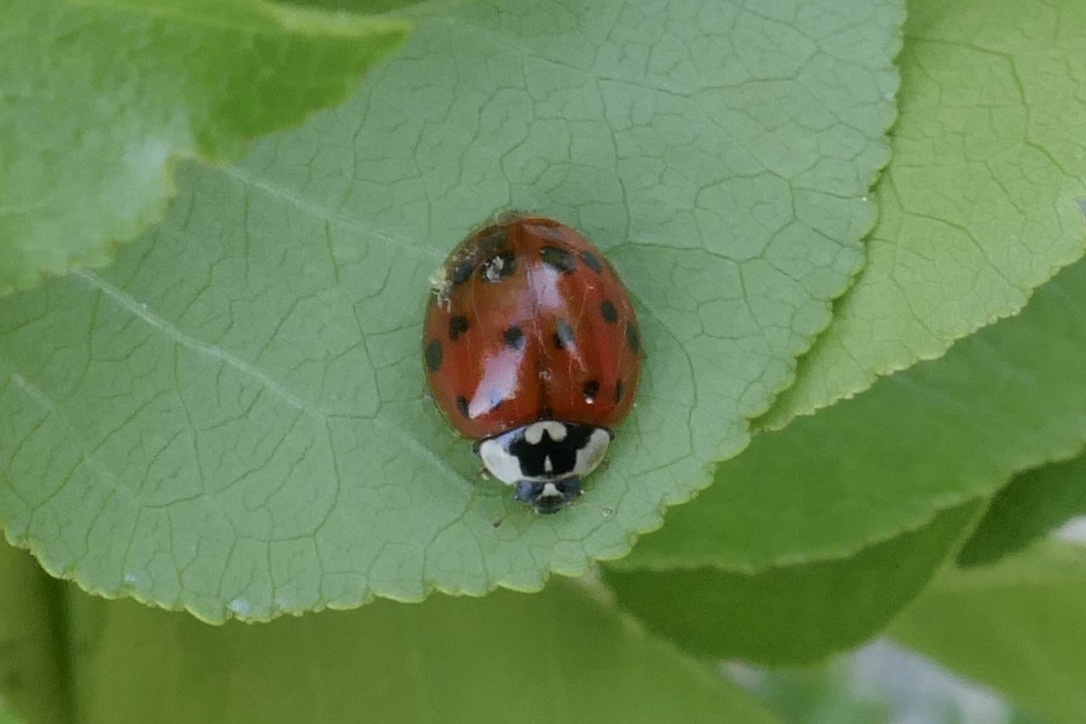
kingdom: Animalia
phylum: Arthropoda
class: Insecta
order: Coleoptera
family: Coccinellidae
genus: Harmonia
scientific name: Harmonia axyridis
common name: Harlequin ladybird
